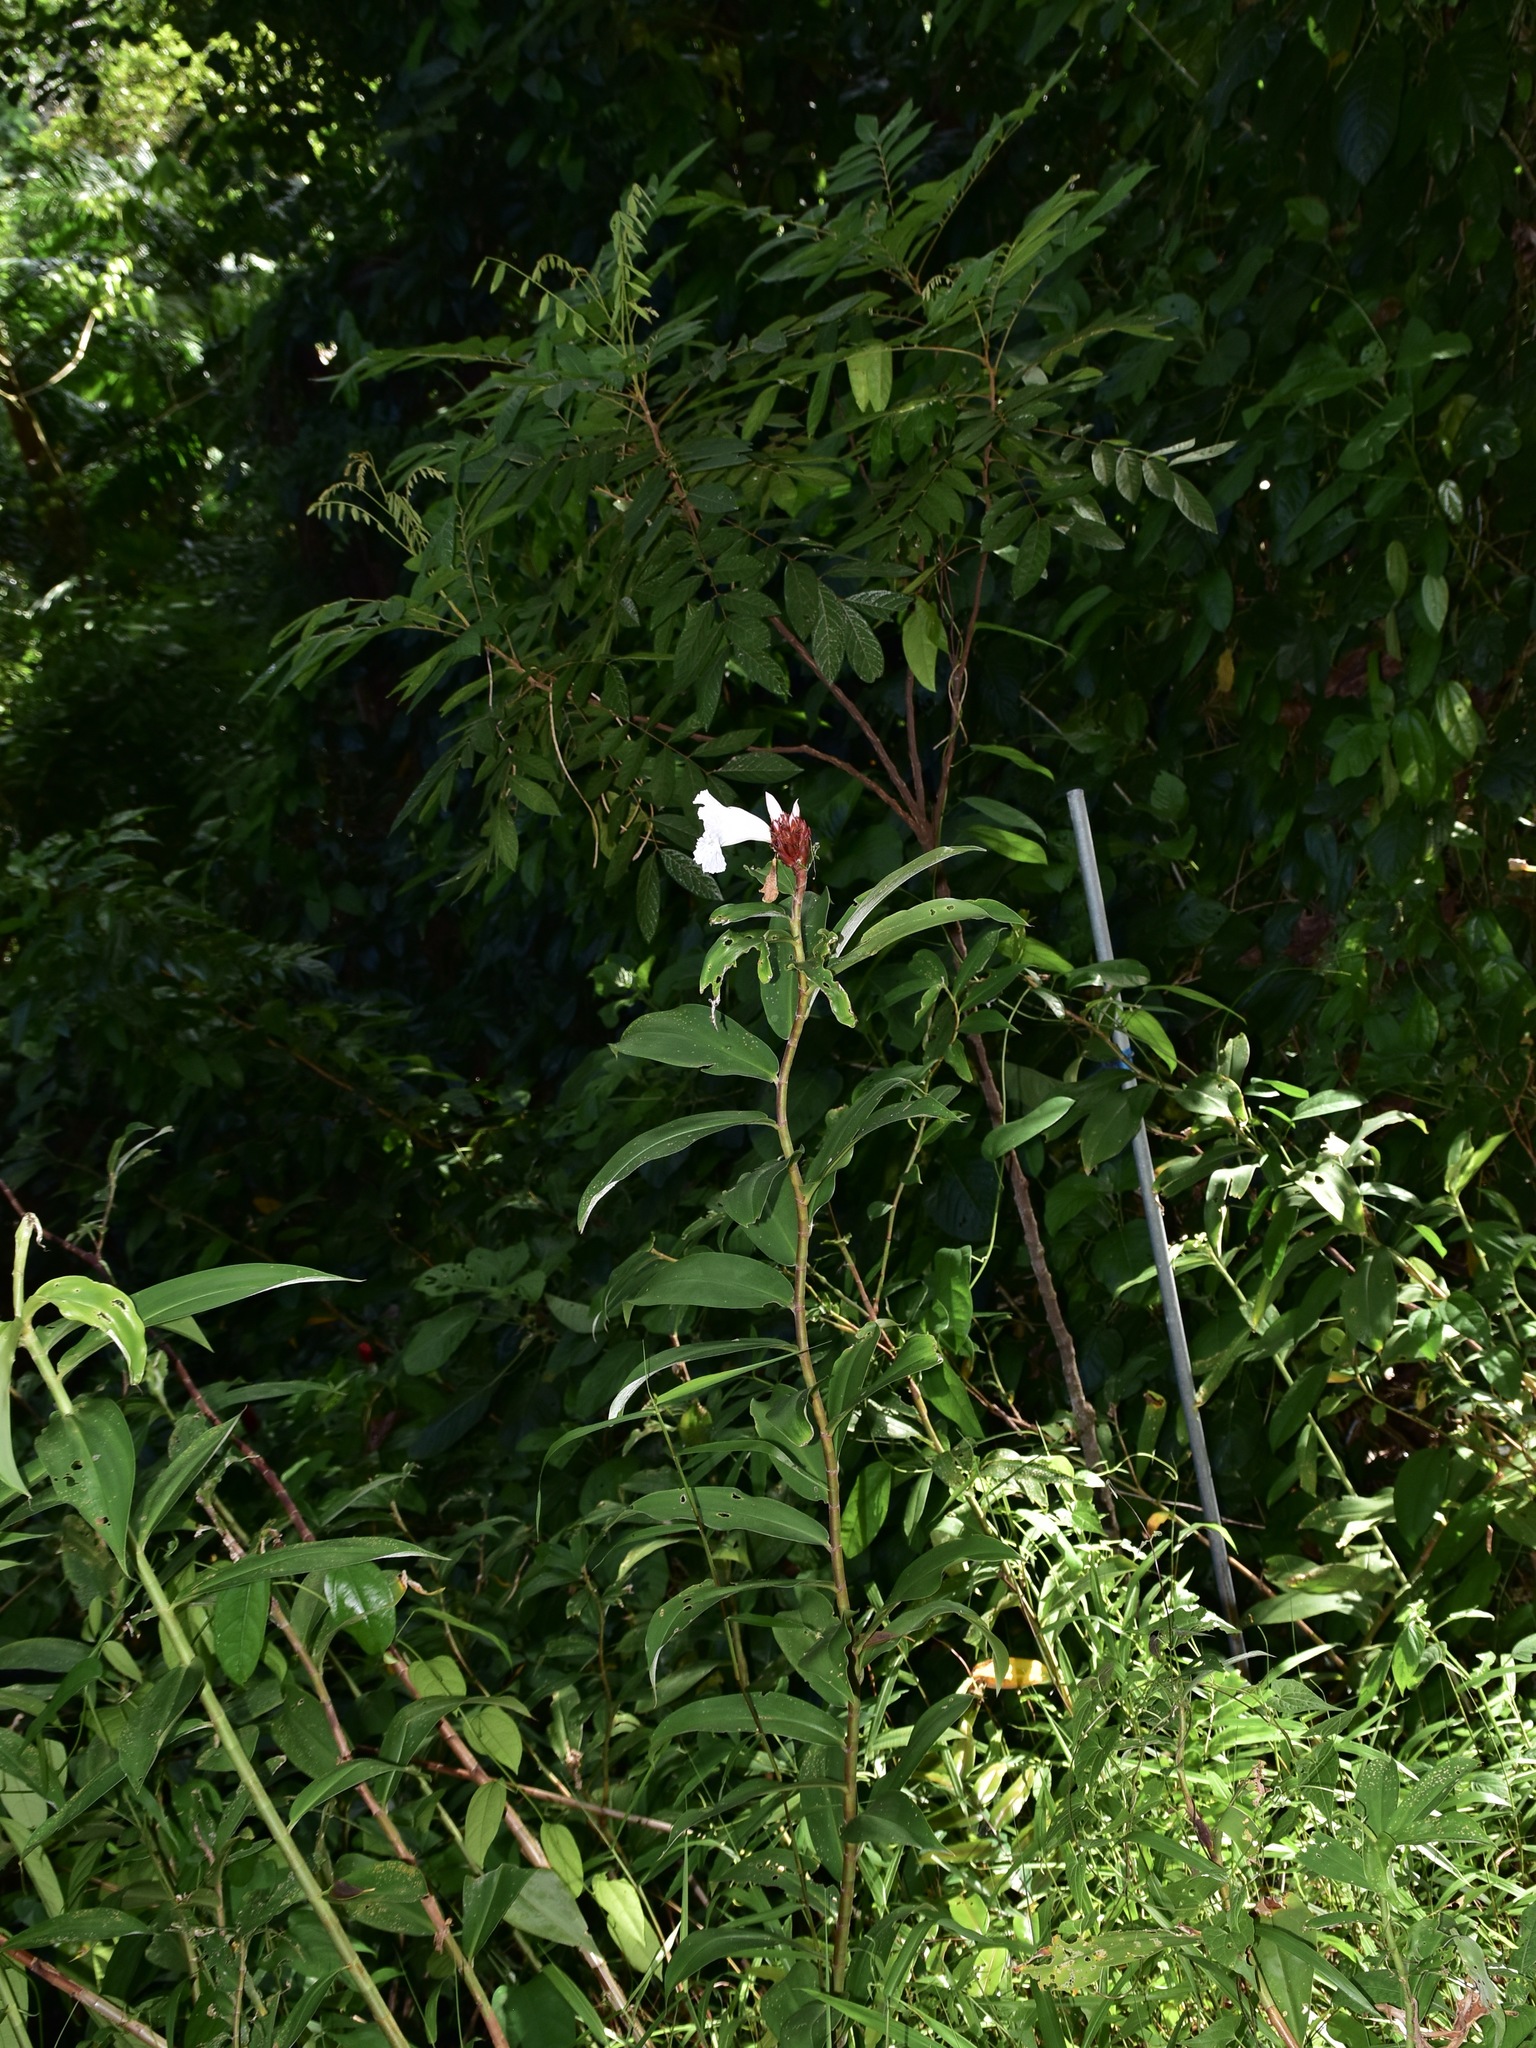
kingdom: Plantae
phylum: Tracheophyta
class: Liliopsida
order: Zingiberales
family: Costaceae
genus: Hellenia
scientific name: Hellenia speciosa
